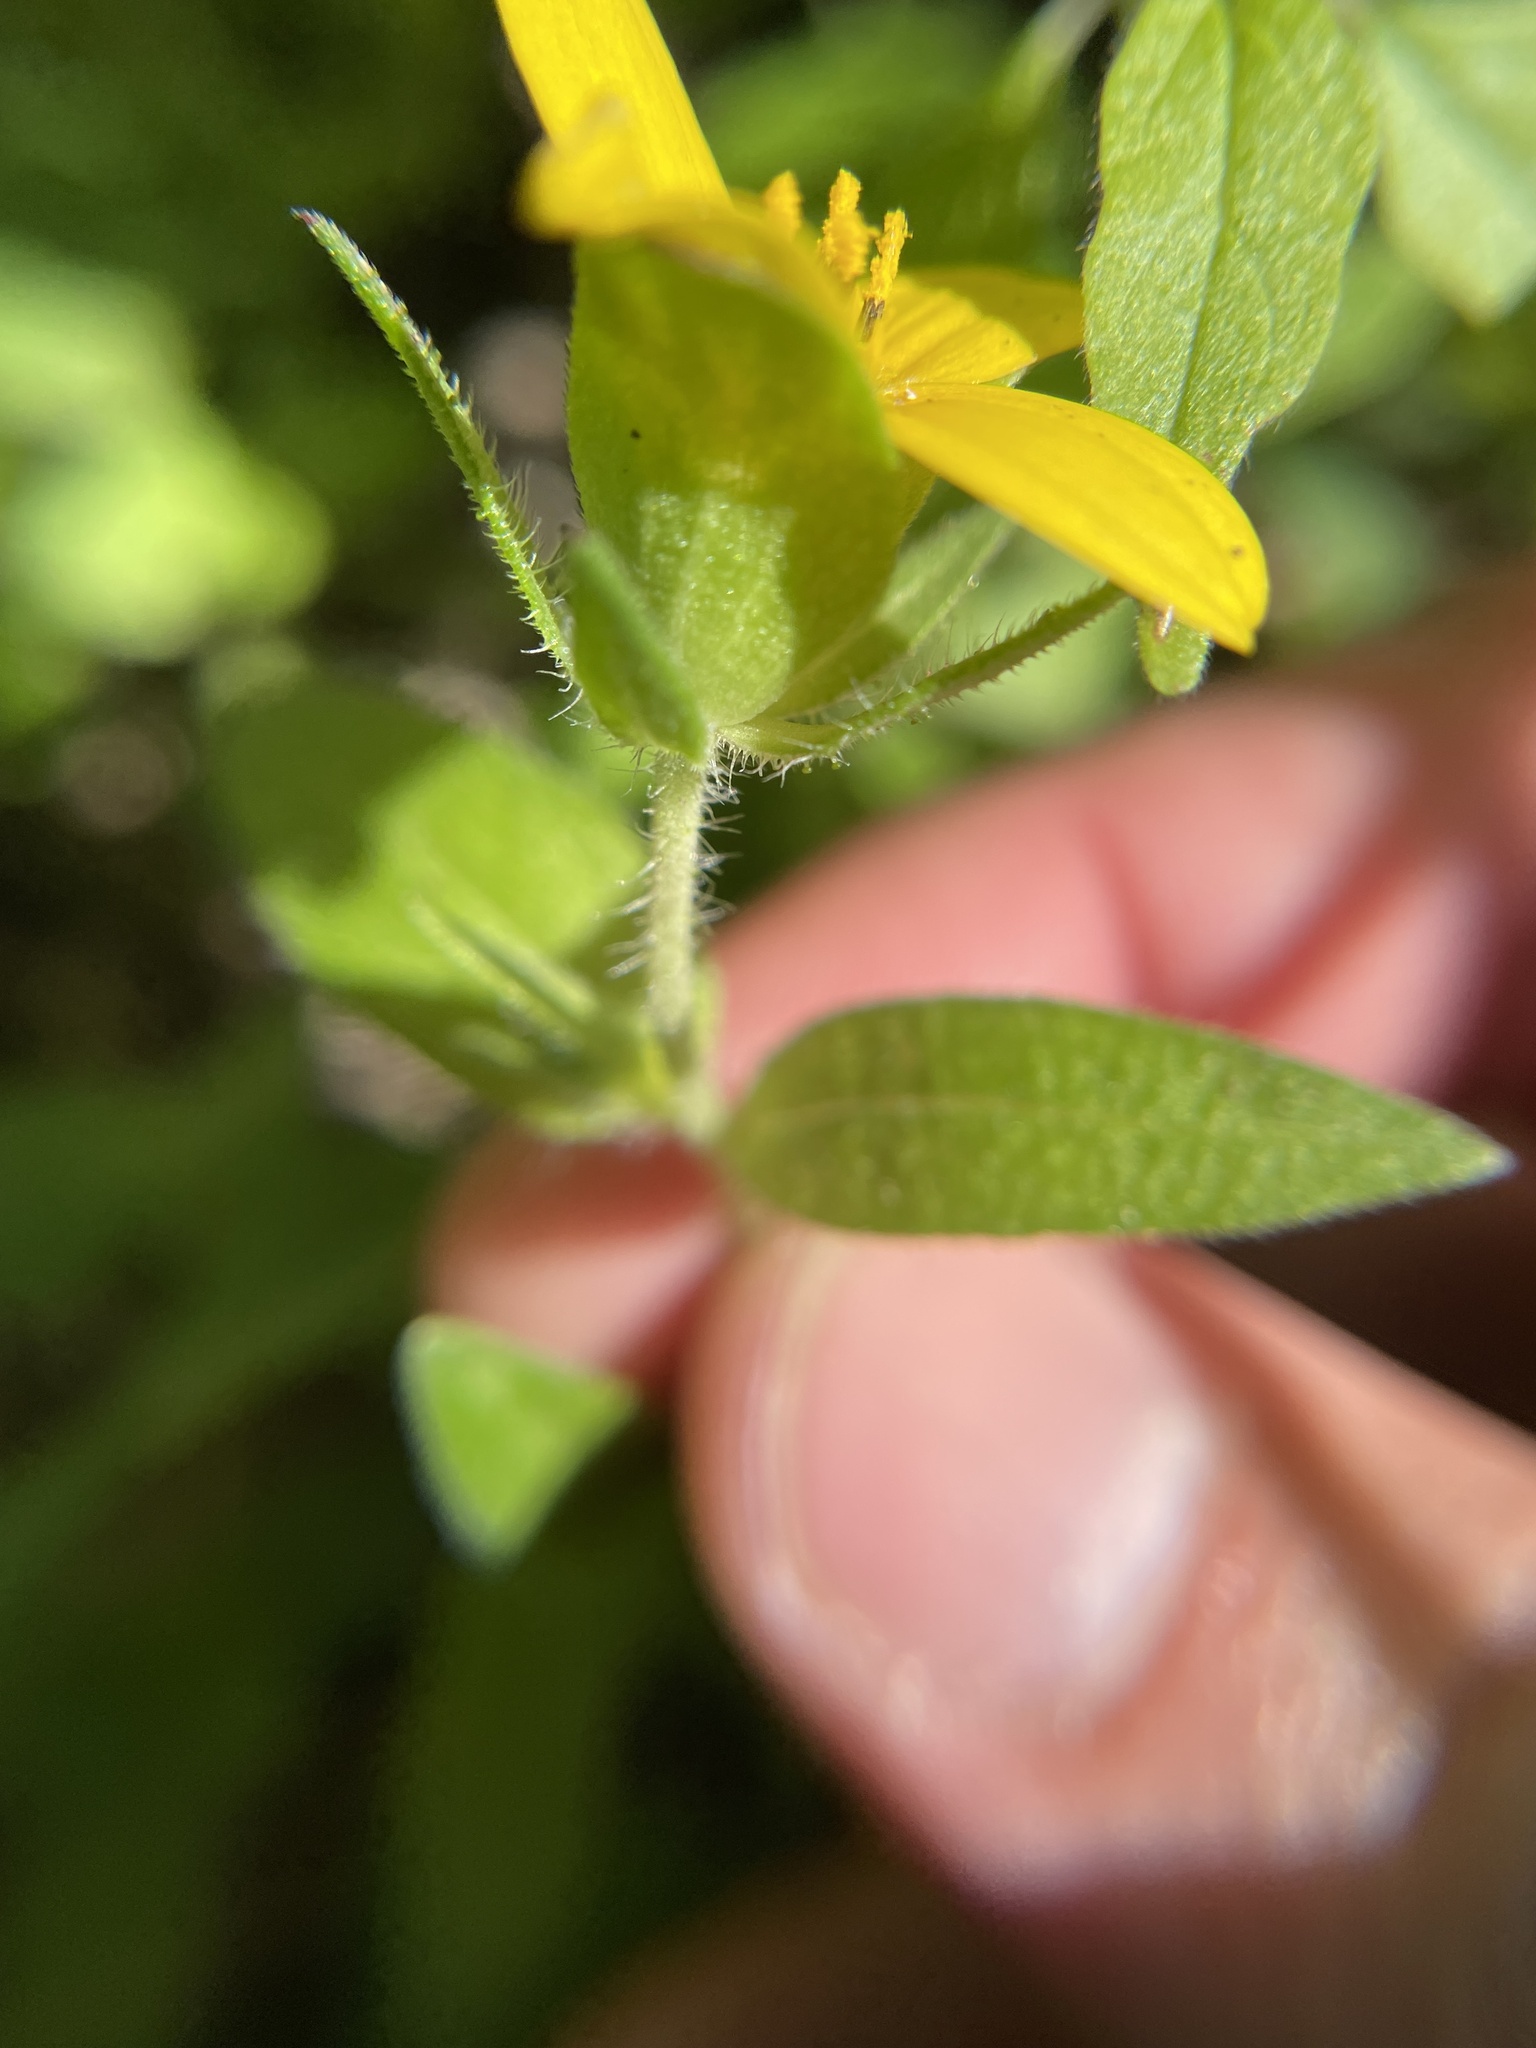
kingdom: Plantae
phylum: Tracheophyta
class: Magnoliopsida
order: Asterales
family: Asteraceae
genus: Lindheimera
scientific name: Lindheimera texana
